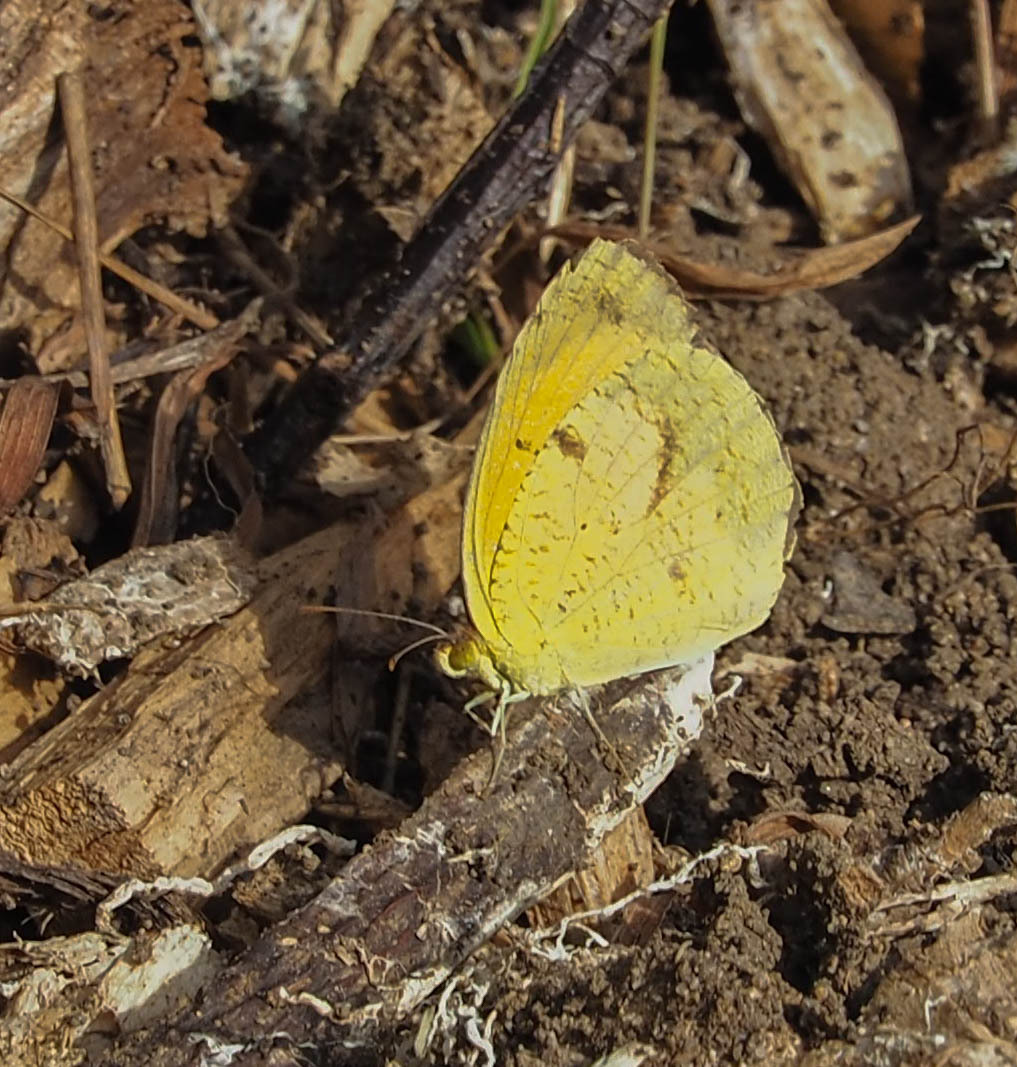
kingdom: Animalia
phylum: Arthropoda
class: Insecta
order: Lepidoptera
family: Pieridae
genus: Abaeis
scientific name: Abaeis nicippe
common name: Sleepy orange
